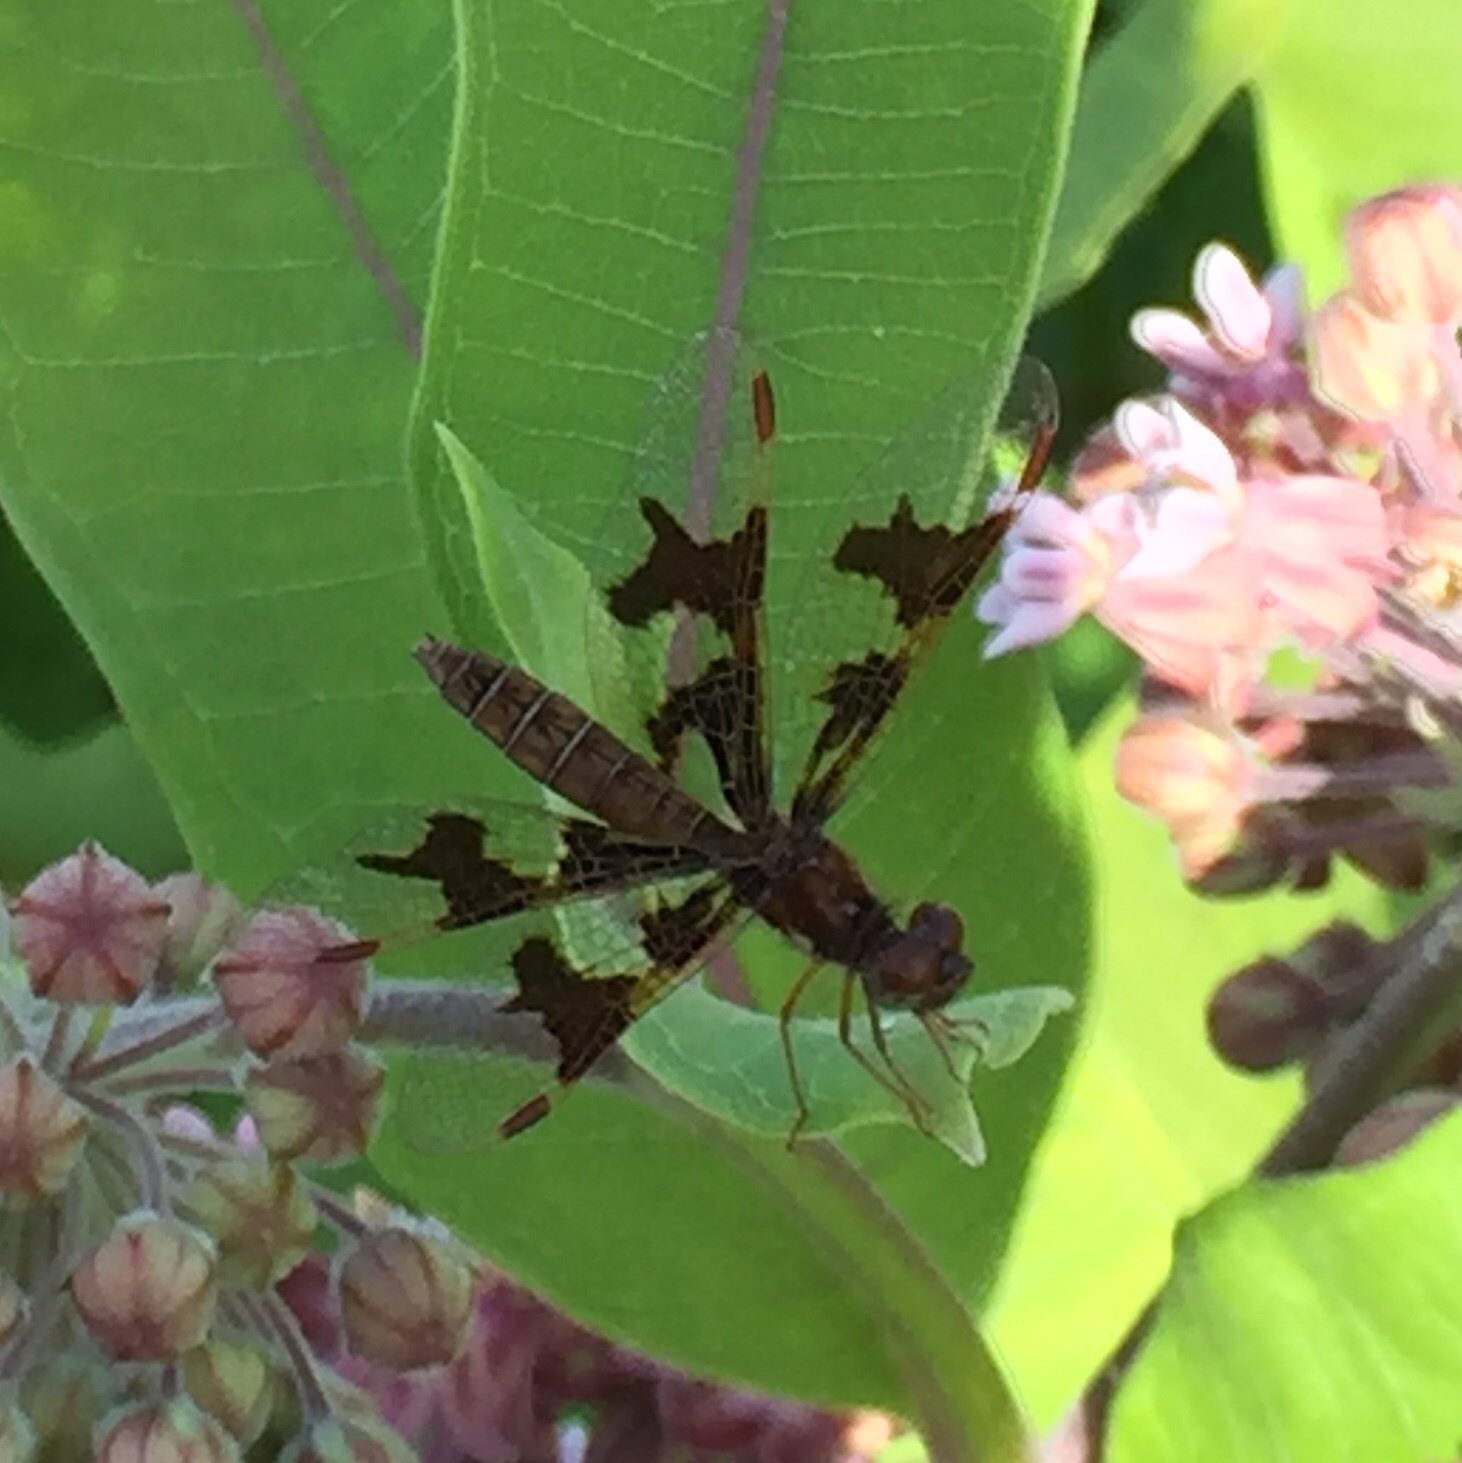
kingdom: Animalia
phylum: Arthropoda
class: Insecta
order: Odonata
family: Libellulidae
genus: Perithemis
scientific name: Perithemis tenera
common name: Eastern amberwing
